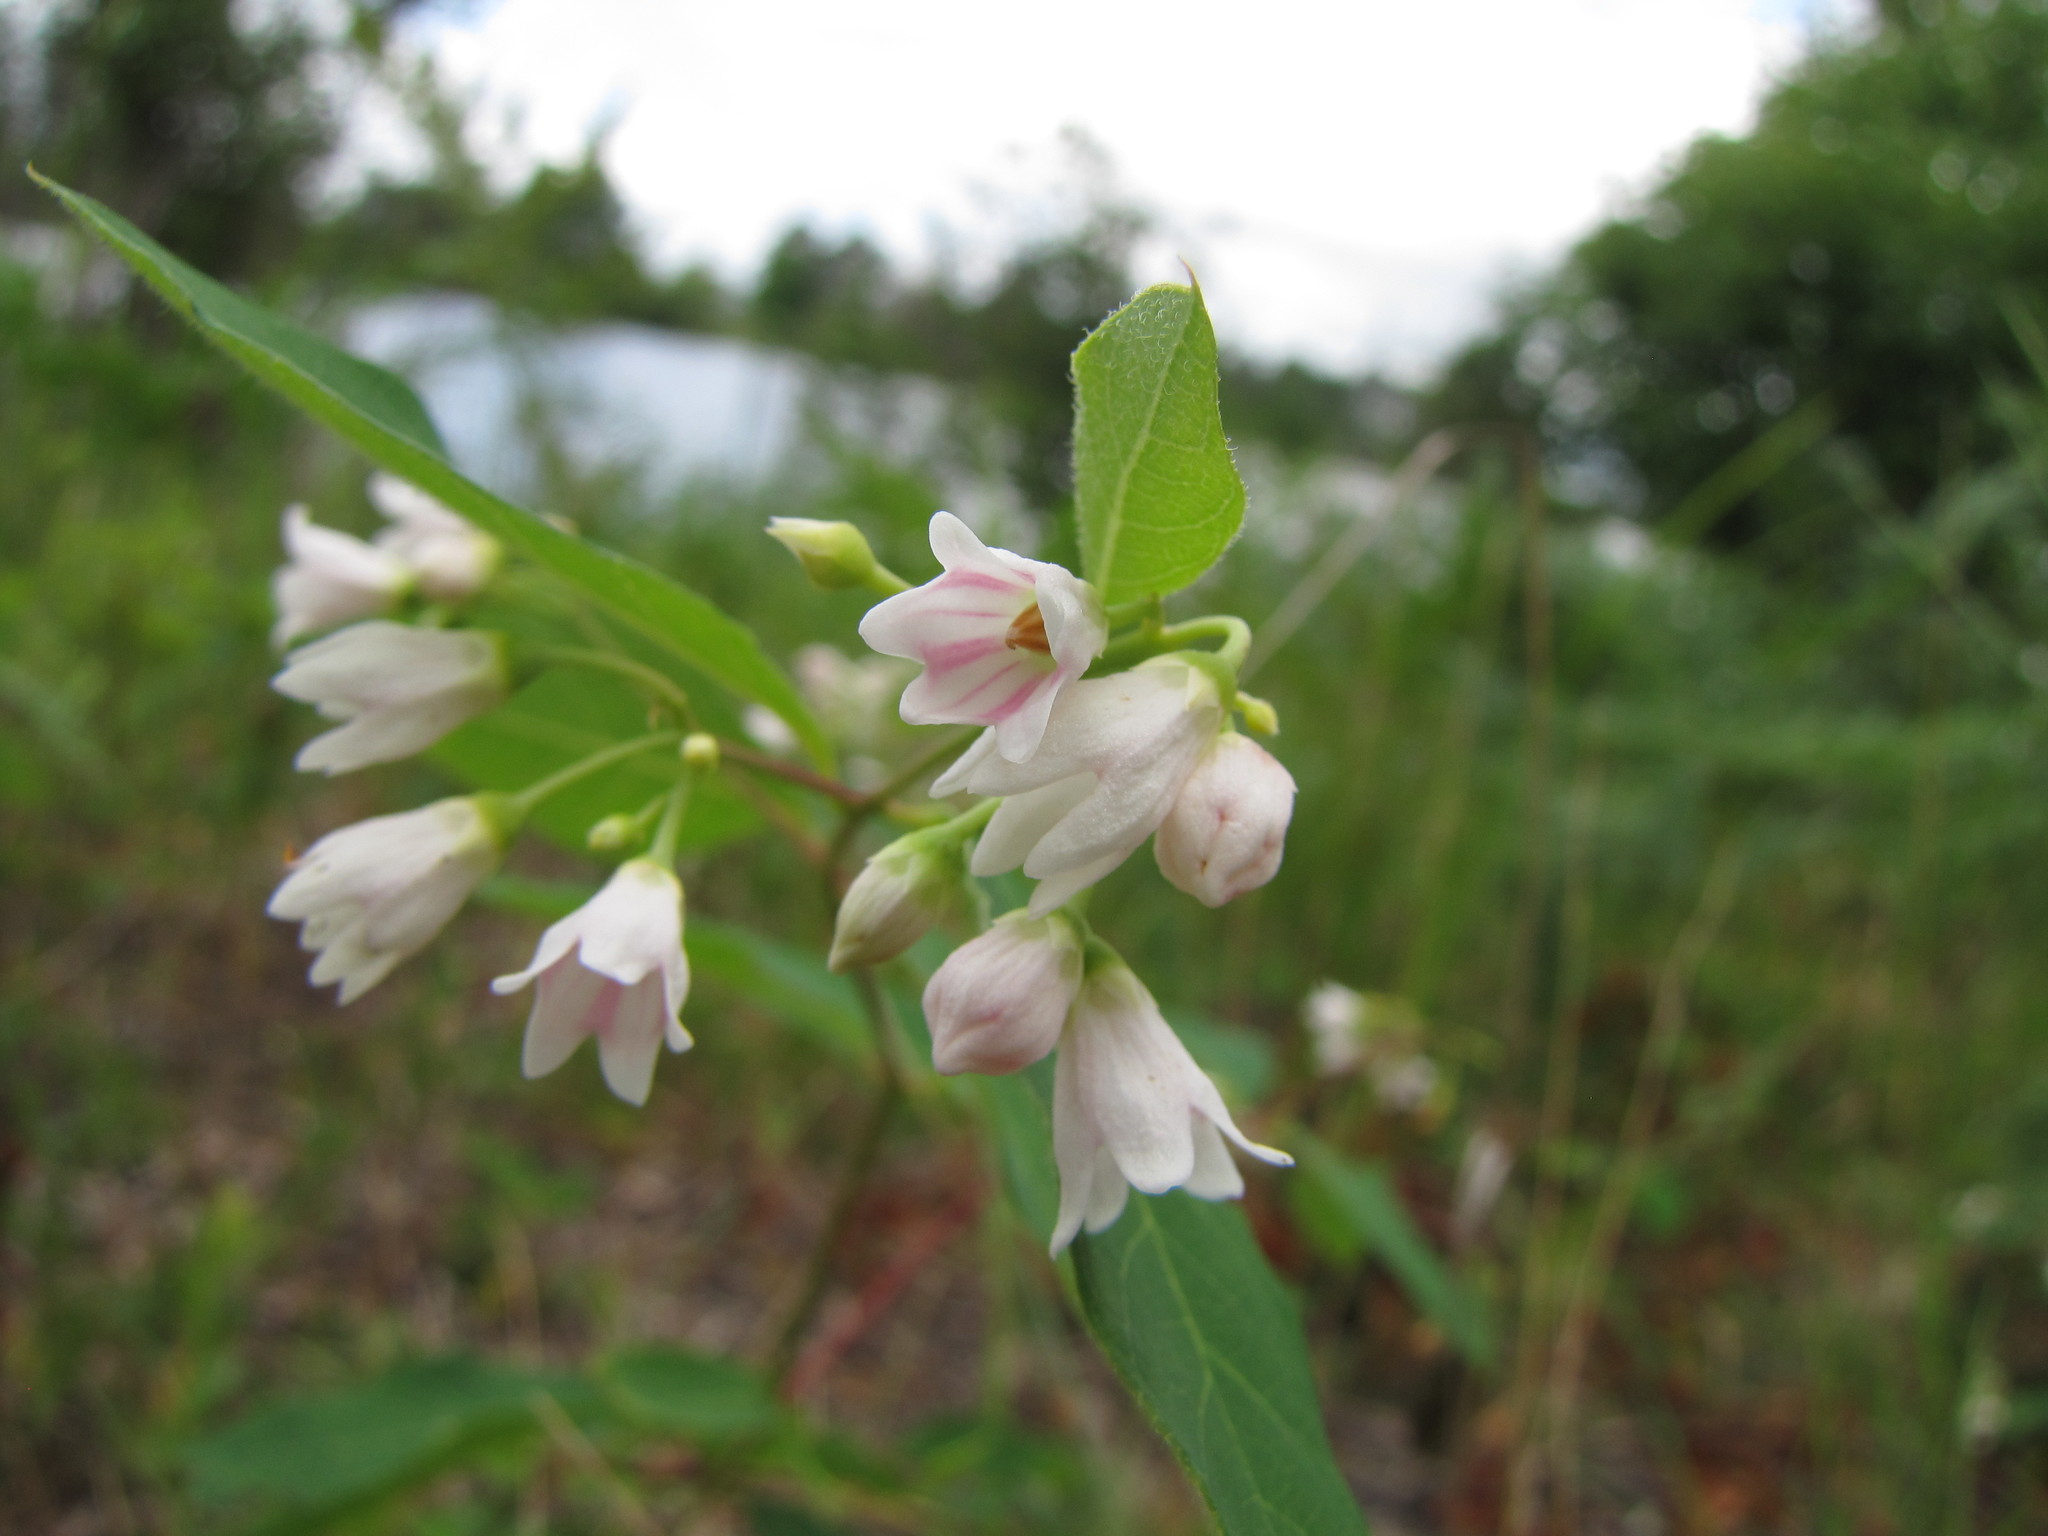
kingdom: Plantae
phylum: Tracheophyta
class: Magnoliopsida
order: Gentianales
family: Apocynaceae
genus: Apocynum
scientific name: Apocynum androsaemifolium
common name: Spreading dogbane
